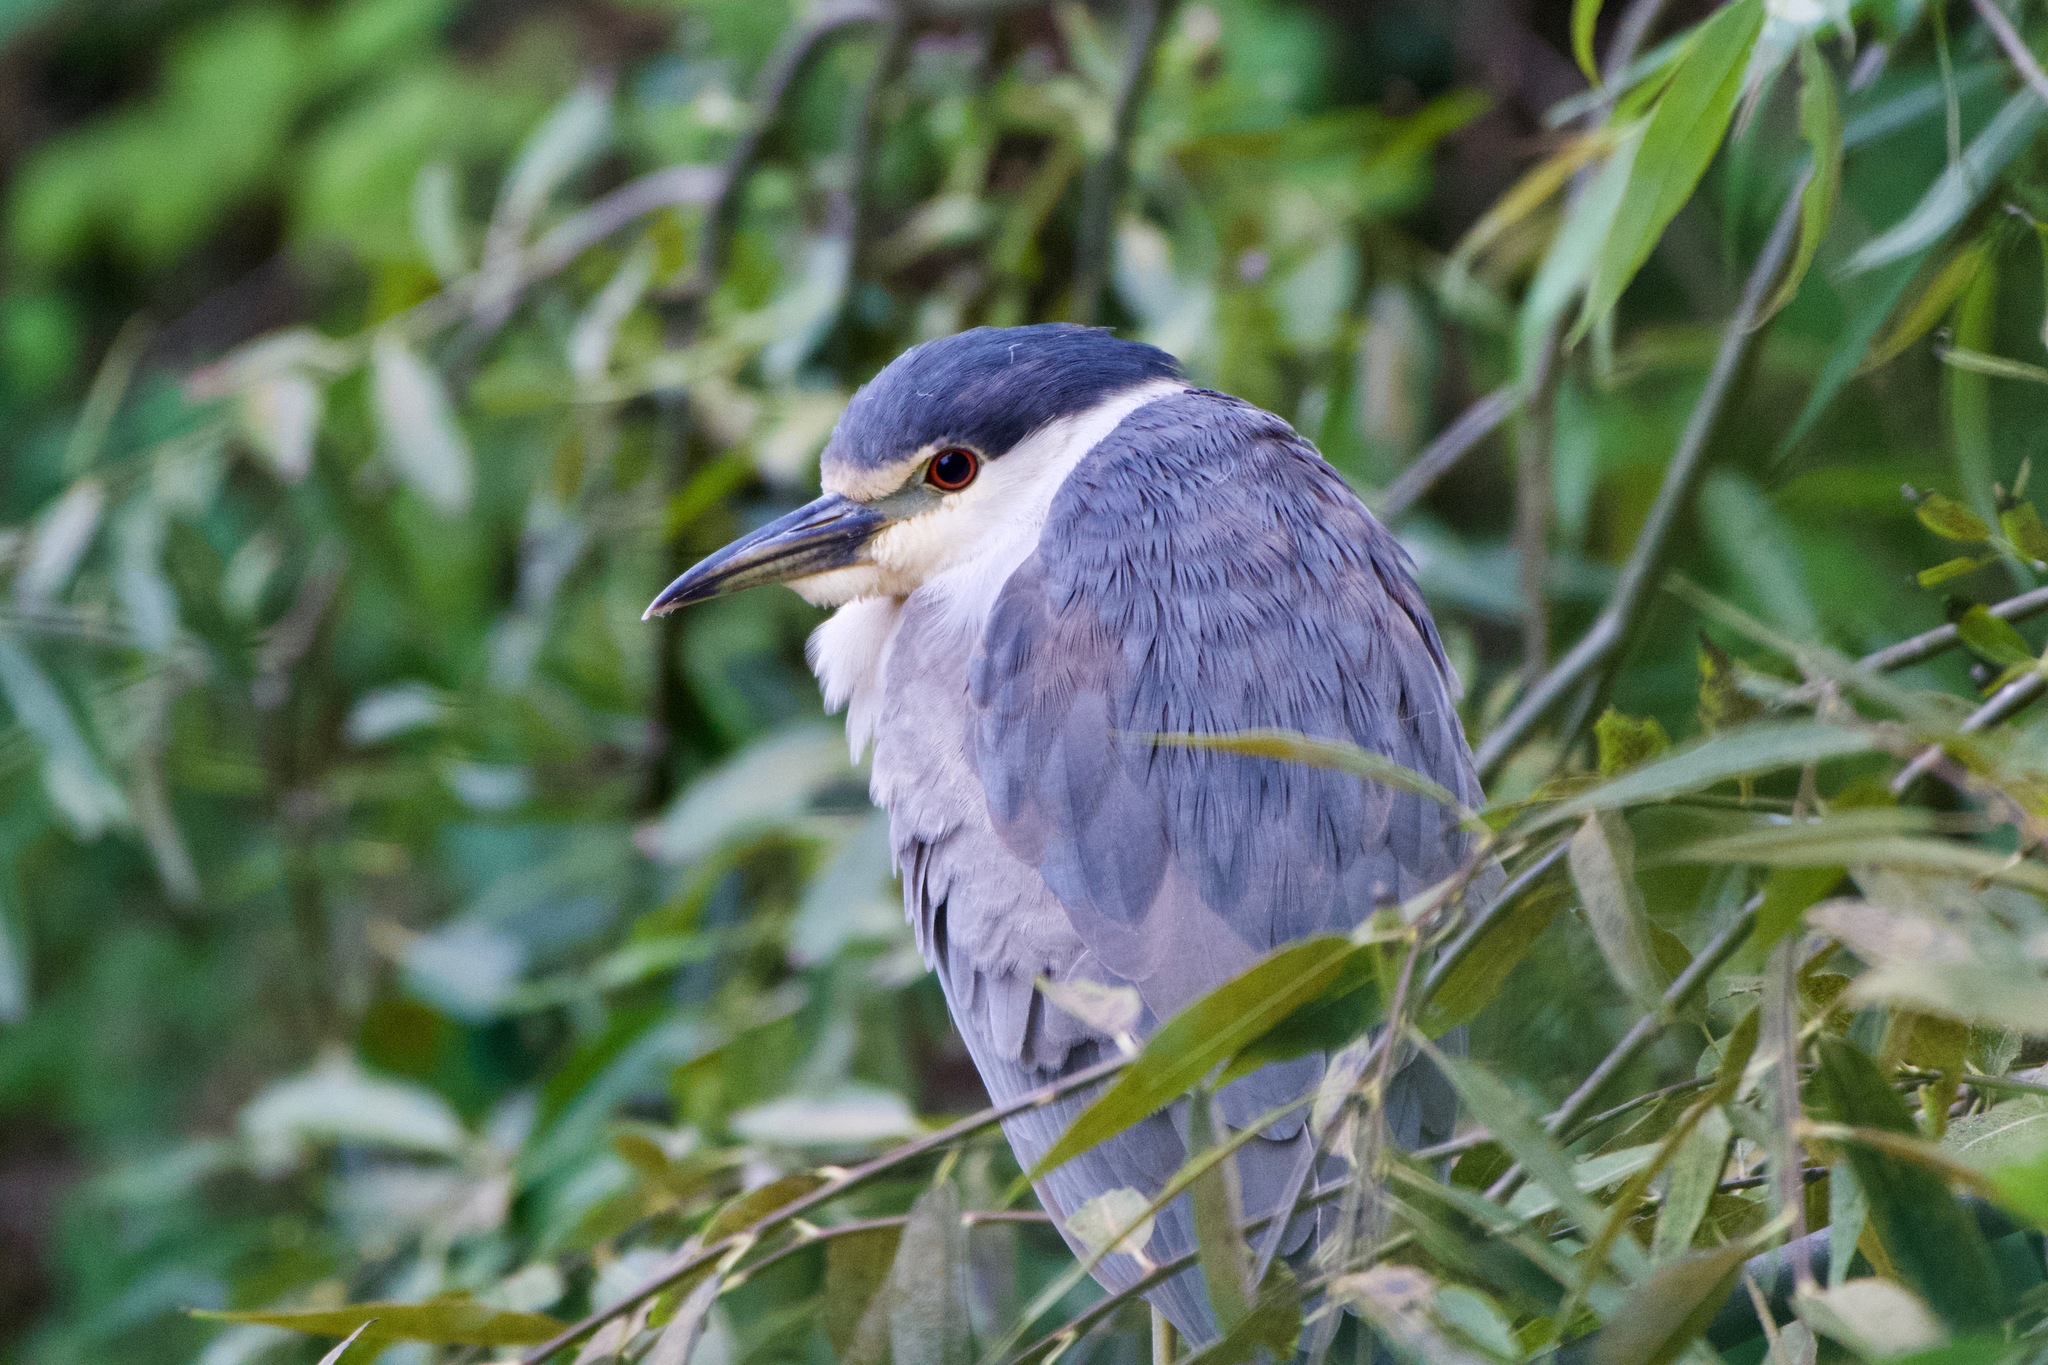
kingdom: Animalia
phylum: Chordata
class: Aves
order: Pelecaniformes
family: Ardeidae
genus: Nycticorax
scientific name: Nycticorax nycticorax
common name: Black-crowned night heron
